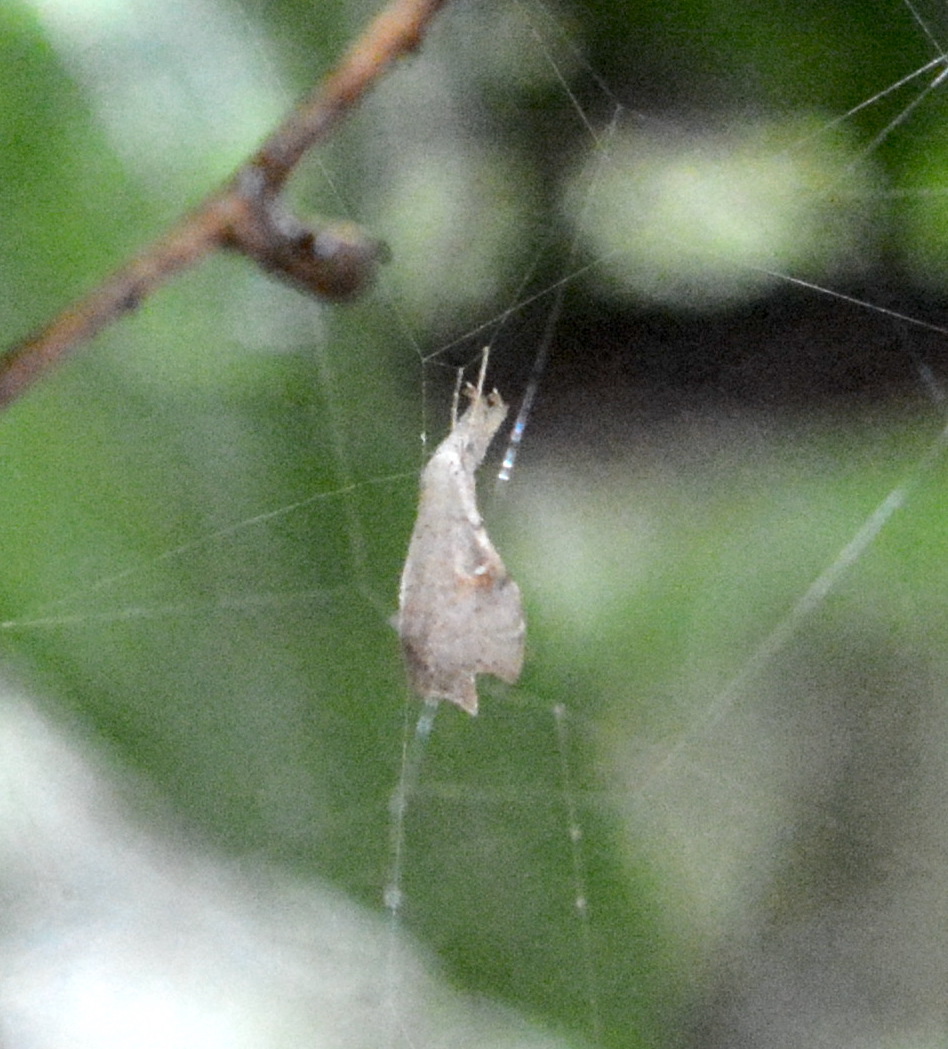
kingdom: Animalia
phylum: Arthropoda
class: Insecta
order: Lepidoptera
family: Erebidae
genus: Redectis
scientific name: Redectis vitrea
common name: White-spotted redectis
